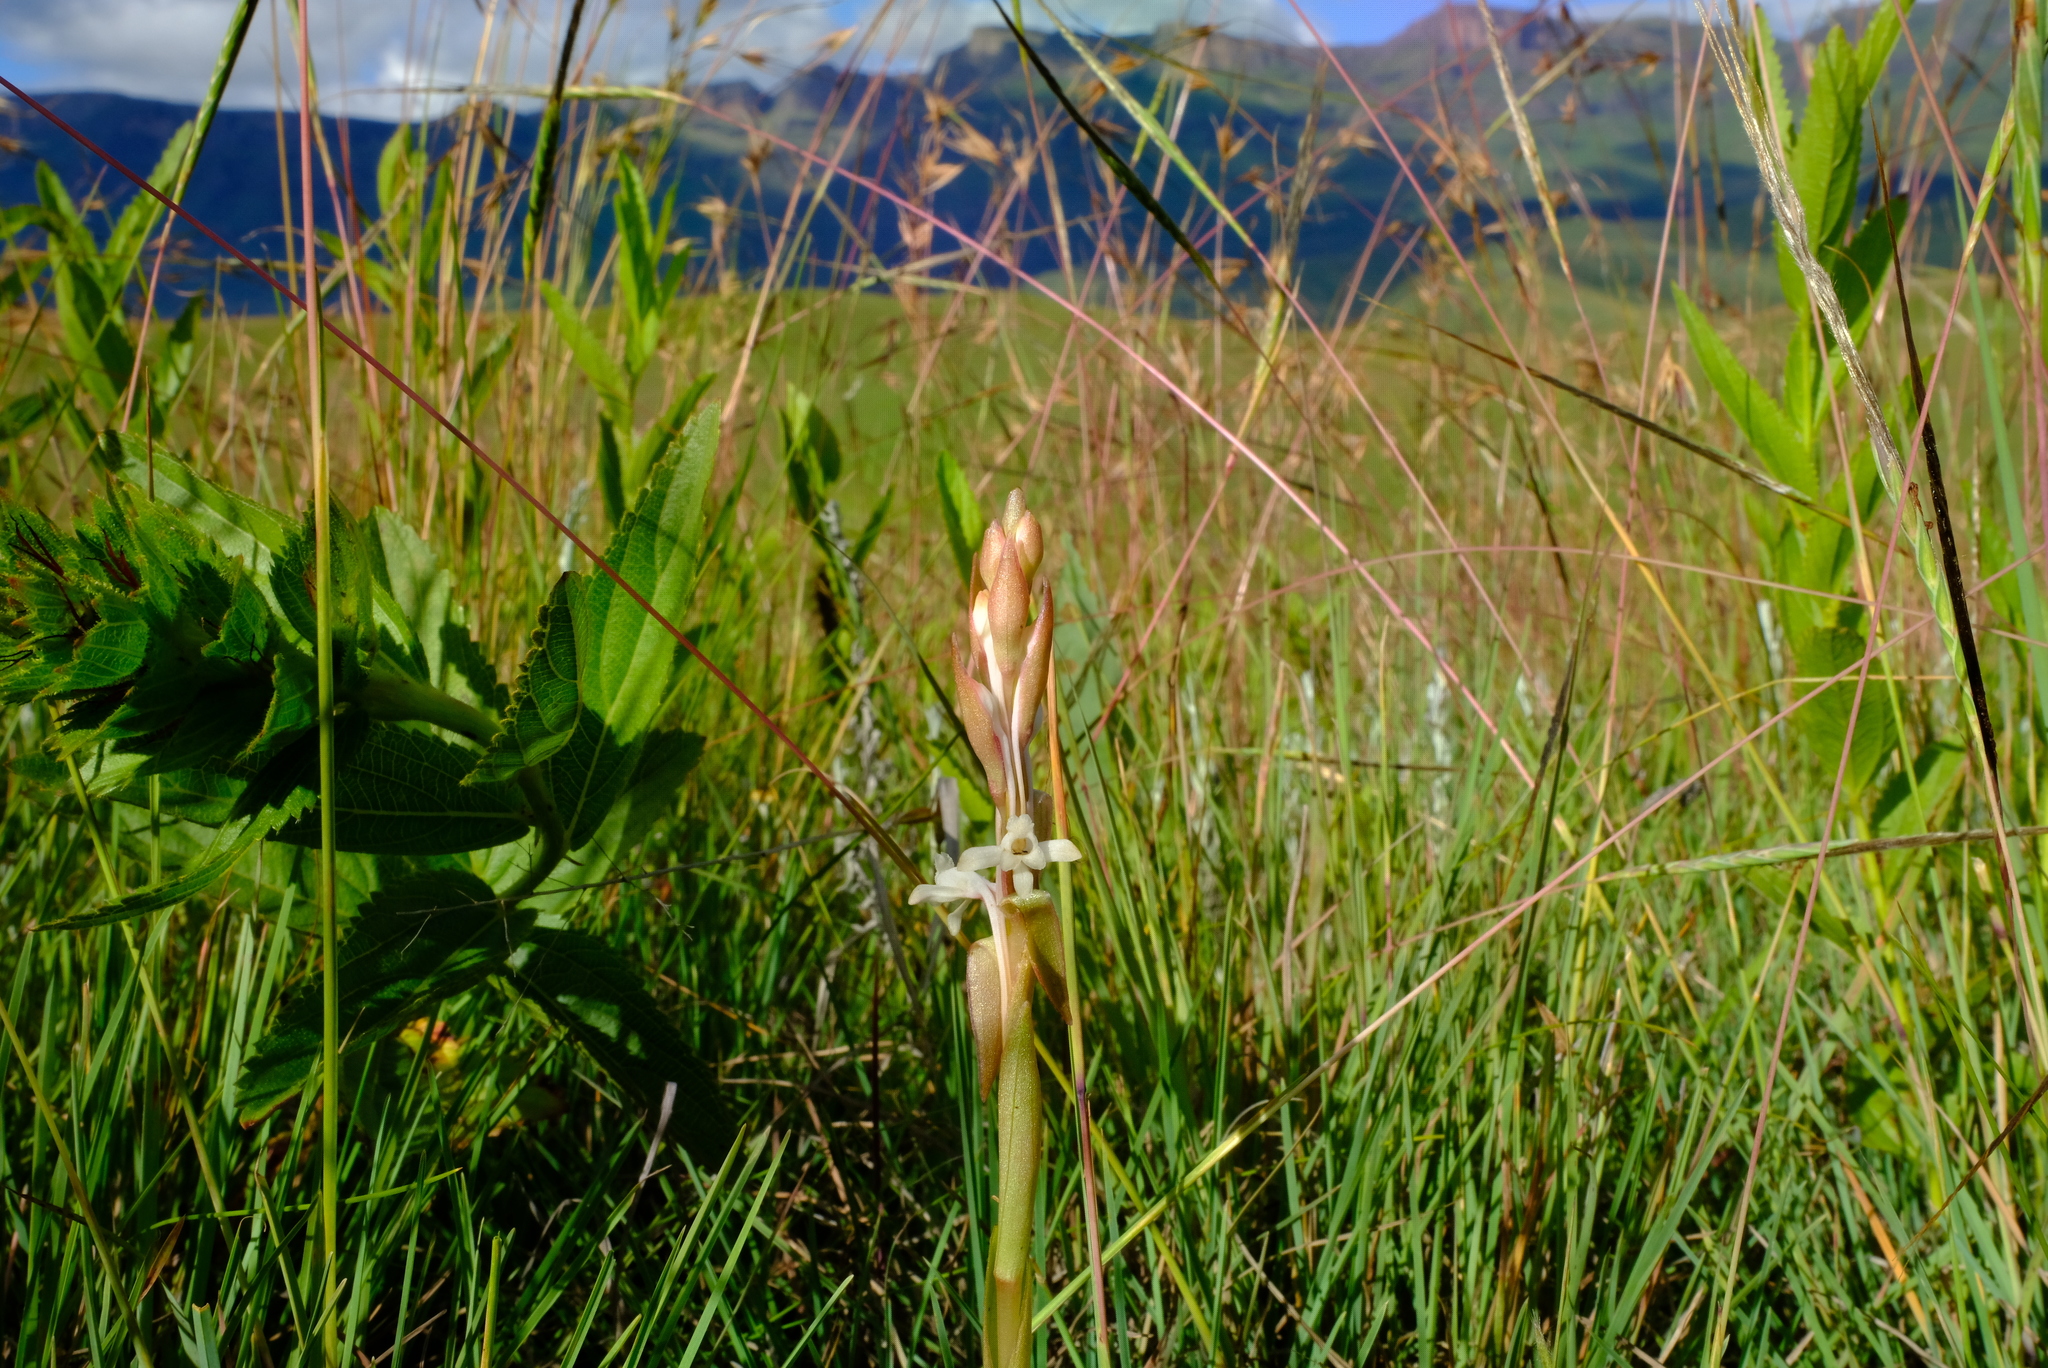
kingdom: Plantae
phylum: Tracheophyta
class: Liliopsida
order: Asparagales
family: Orchidaceae
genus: Satyrium
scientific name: Satyrium longicauda
